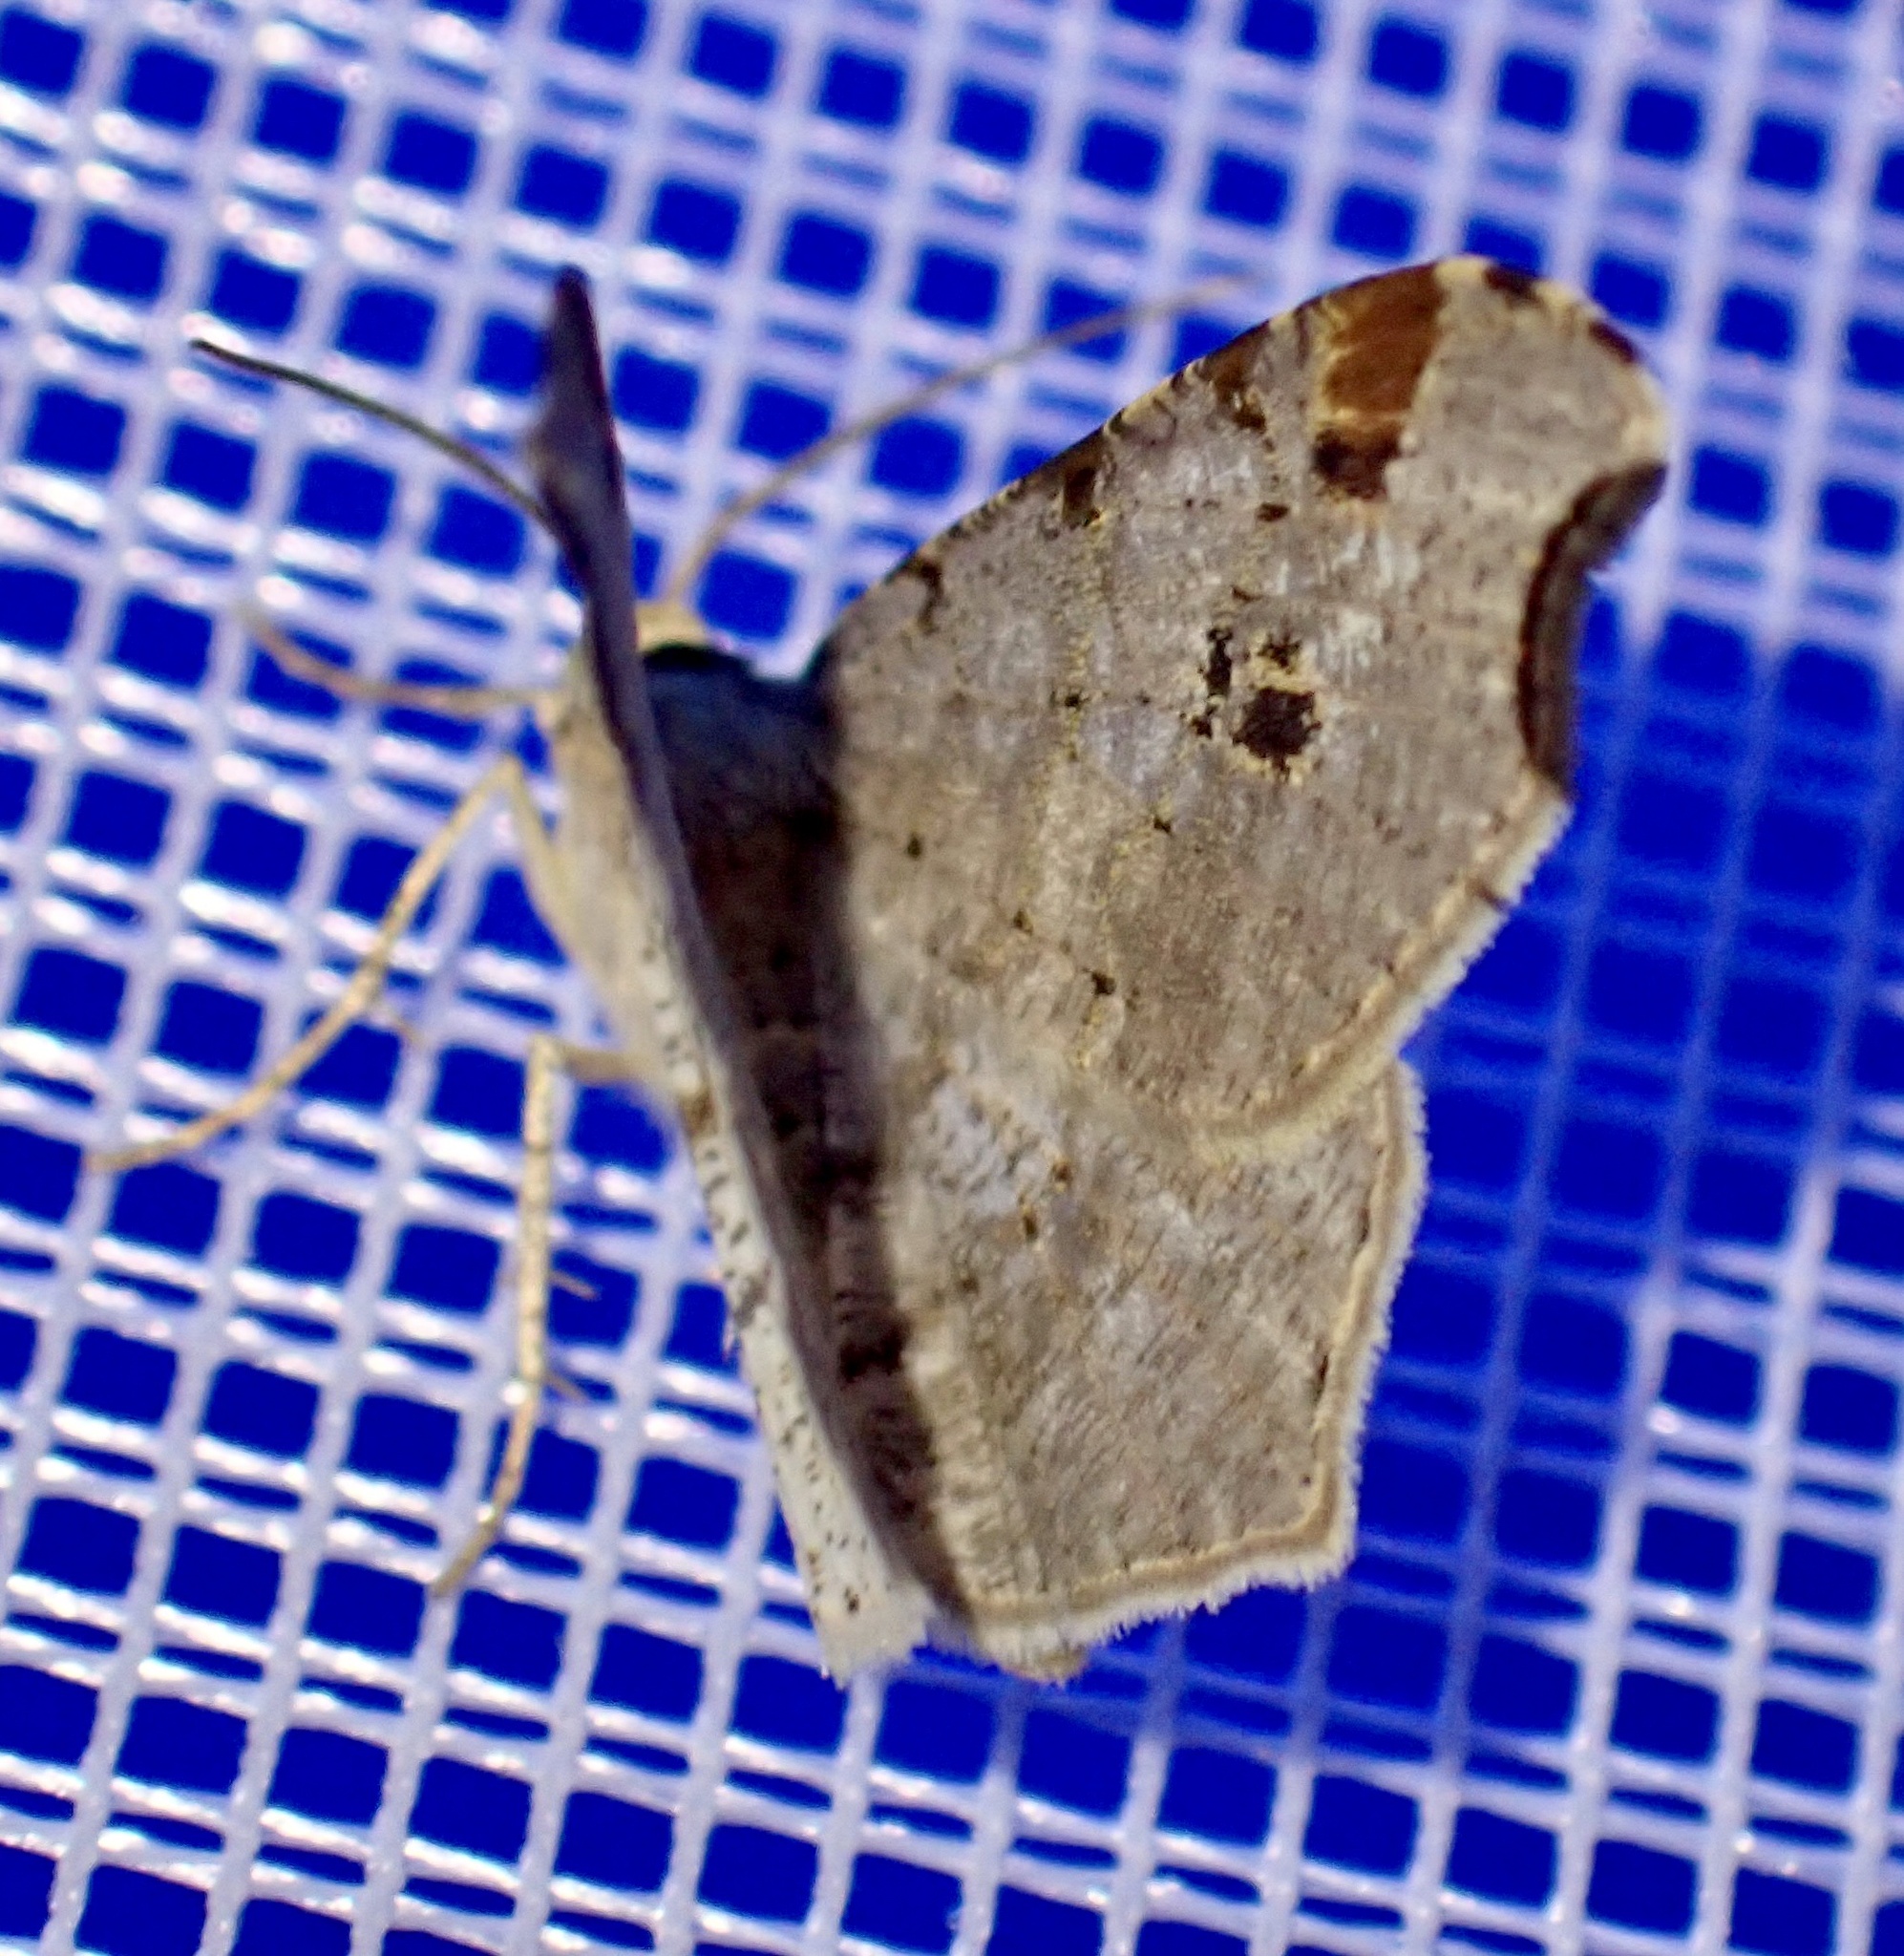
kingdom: Animalia
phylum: Arthropoda
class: Insecta
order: Lepidoptera
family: Geometridae
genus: Macaria
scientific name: Macaria alternata
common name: Sharp-angled peacock
